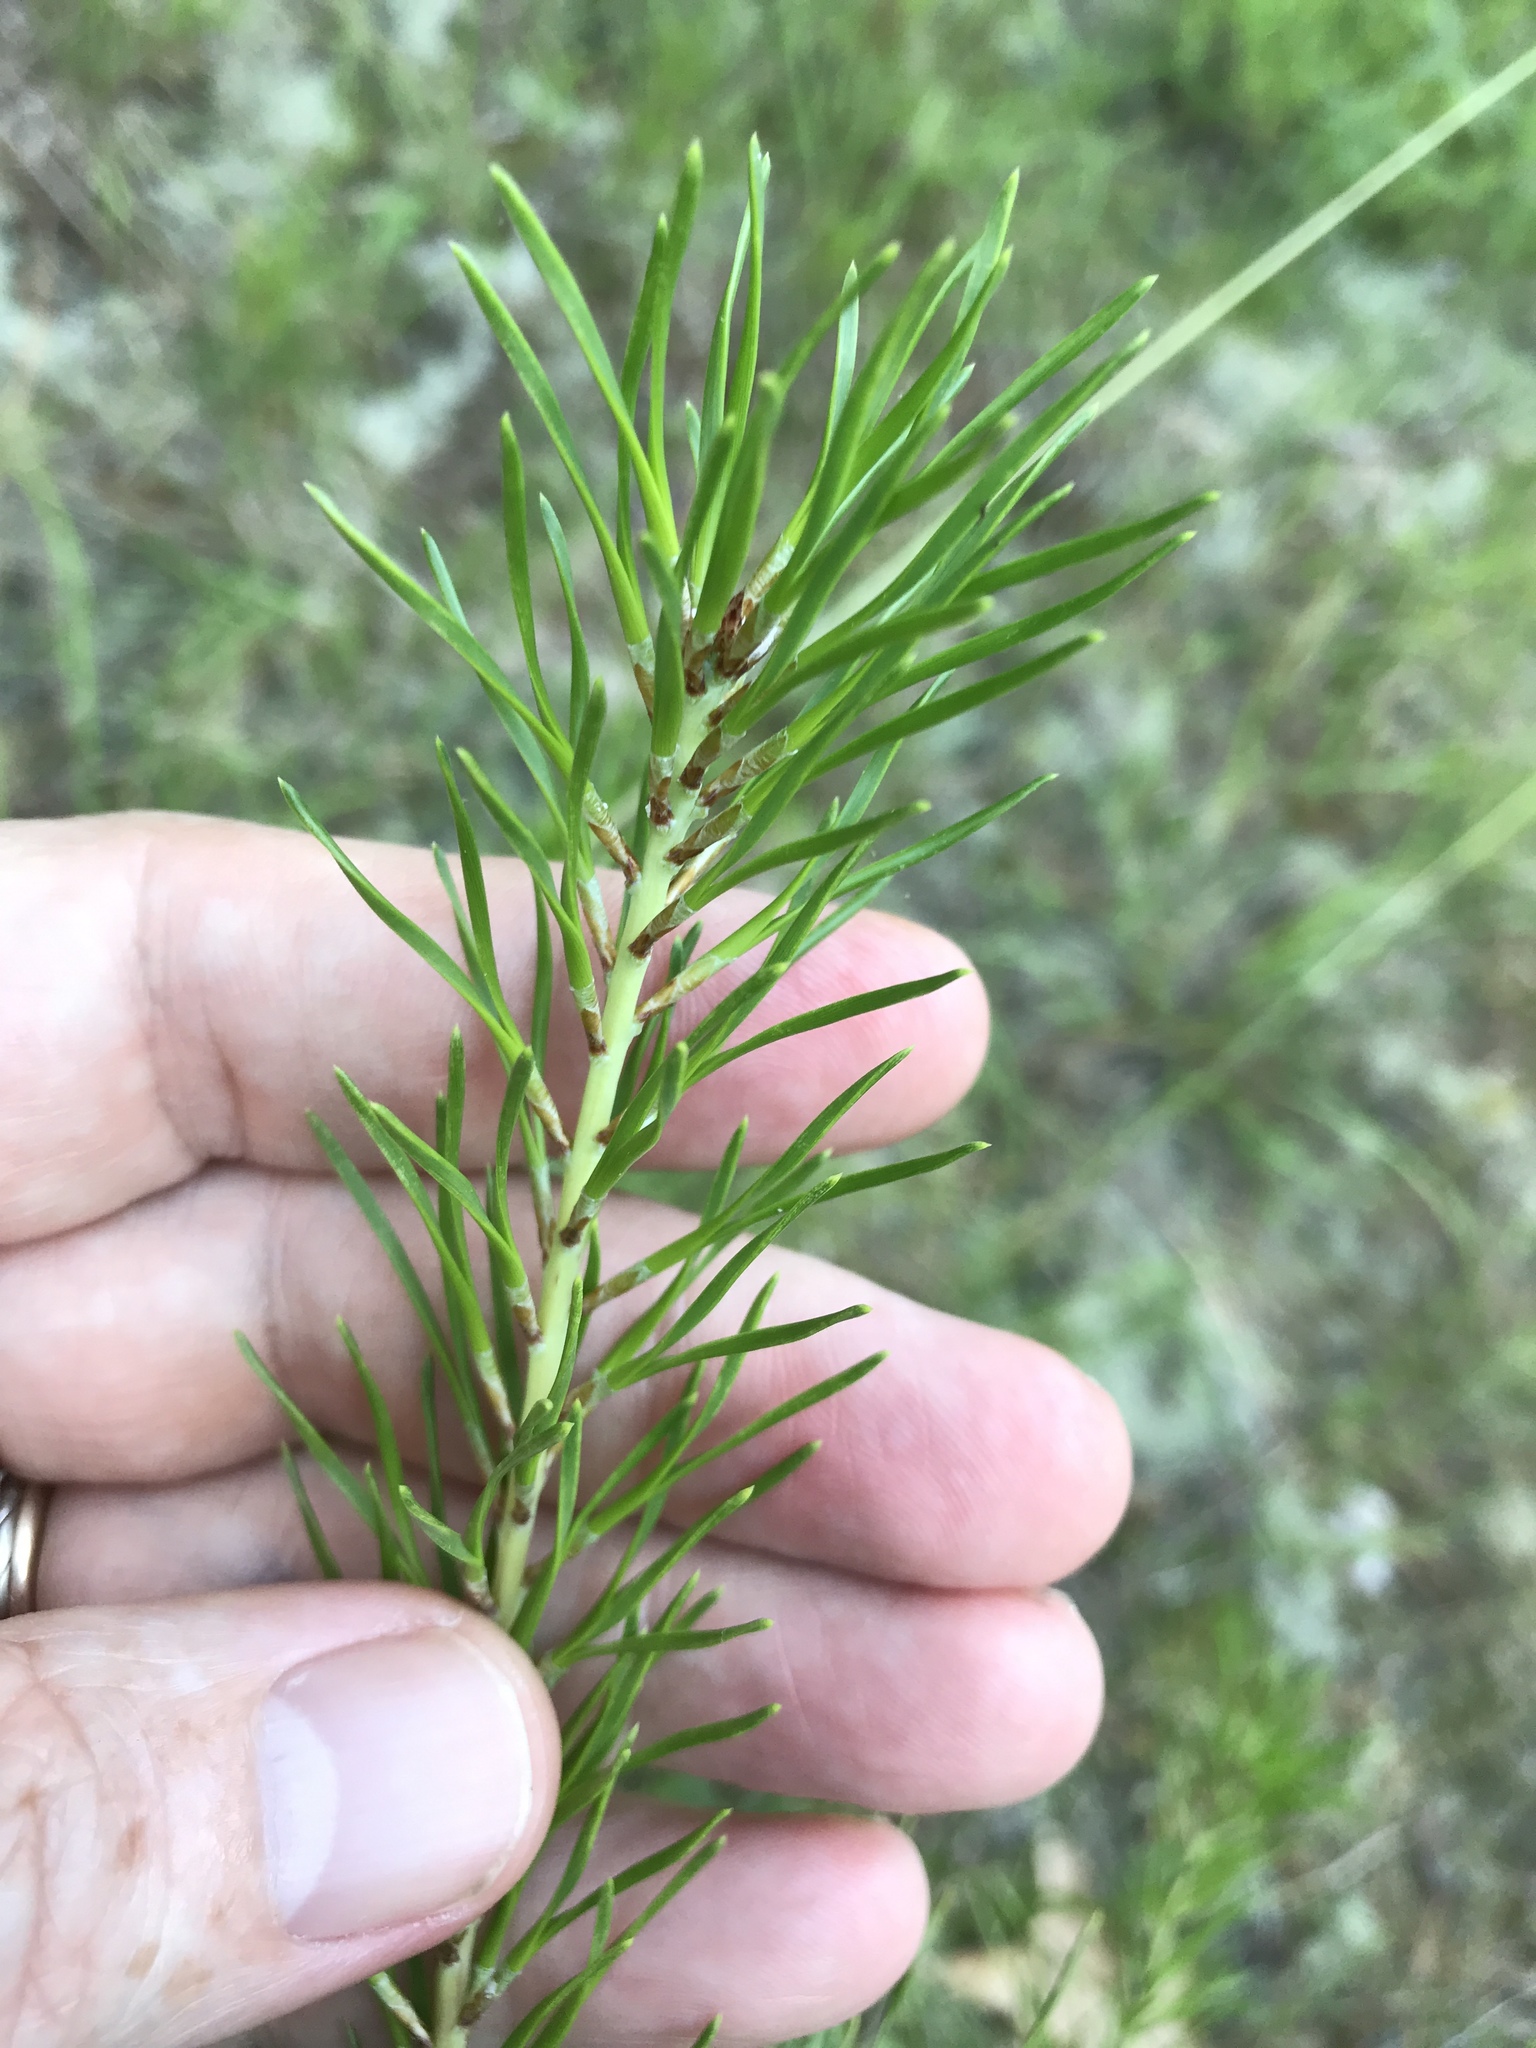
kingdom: Plantae
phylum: Tracheophyta
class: Pinopsida
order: Pinales
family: Pinaceae
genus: Pinus
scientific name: Pinus virginiana
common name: Scrub pine
